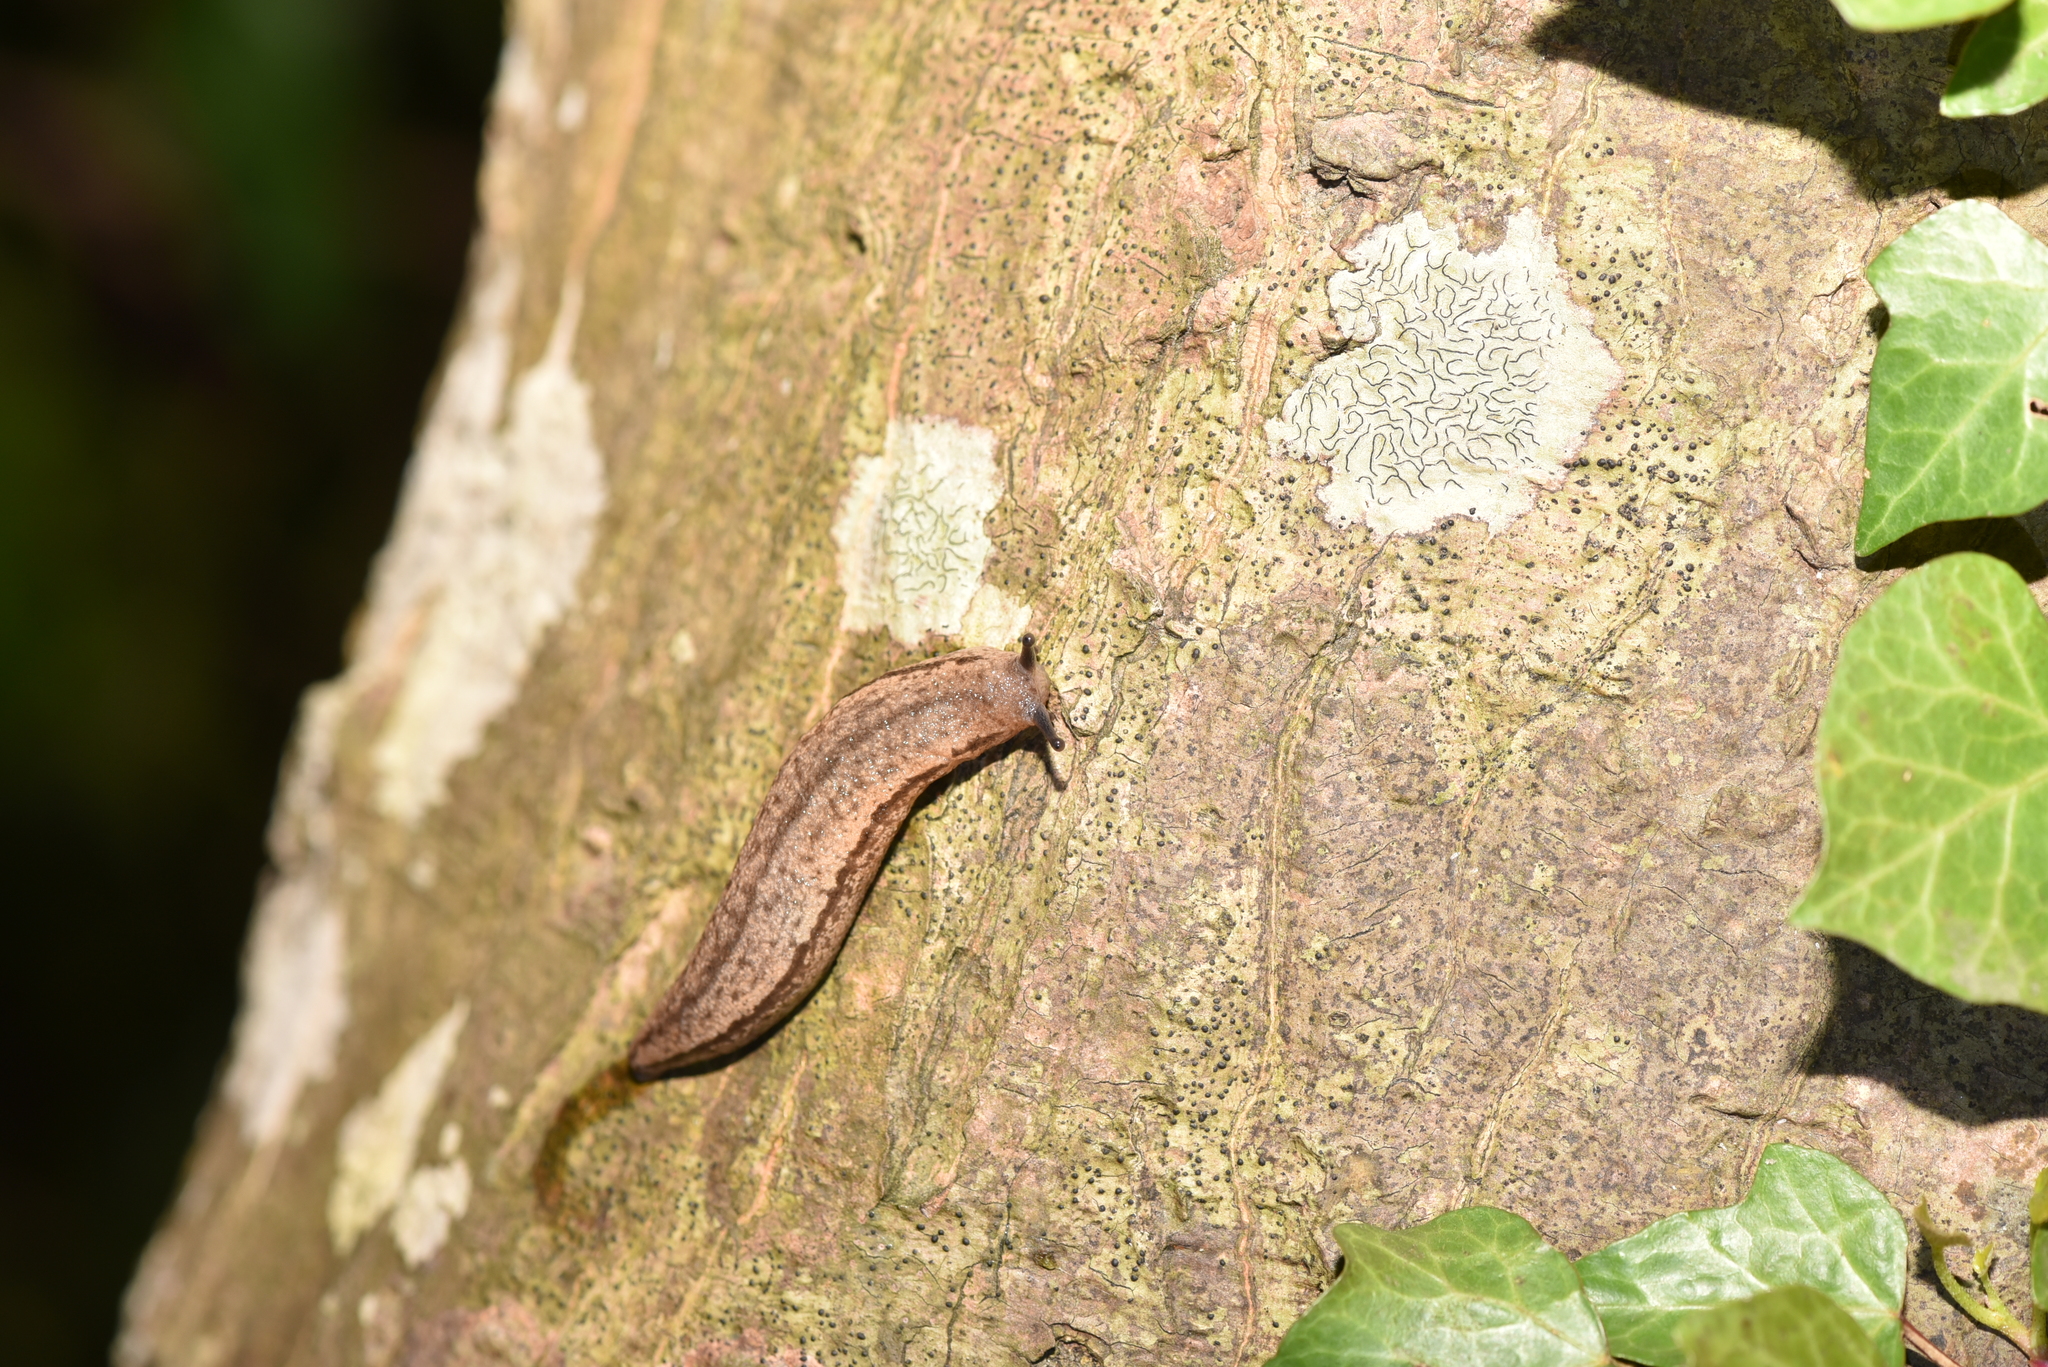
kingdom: Animalia
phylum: Mollusca
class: Gastropoda
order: Stylommatophora
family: Philomycidae
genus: Meghimatium
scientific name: Meghimatium bilineatum
